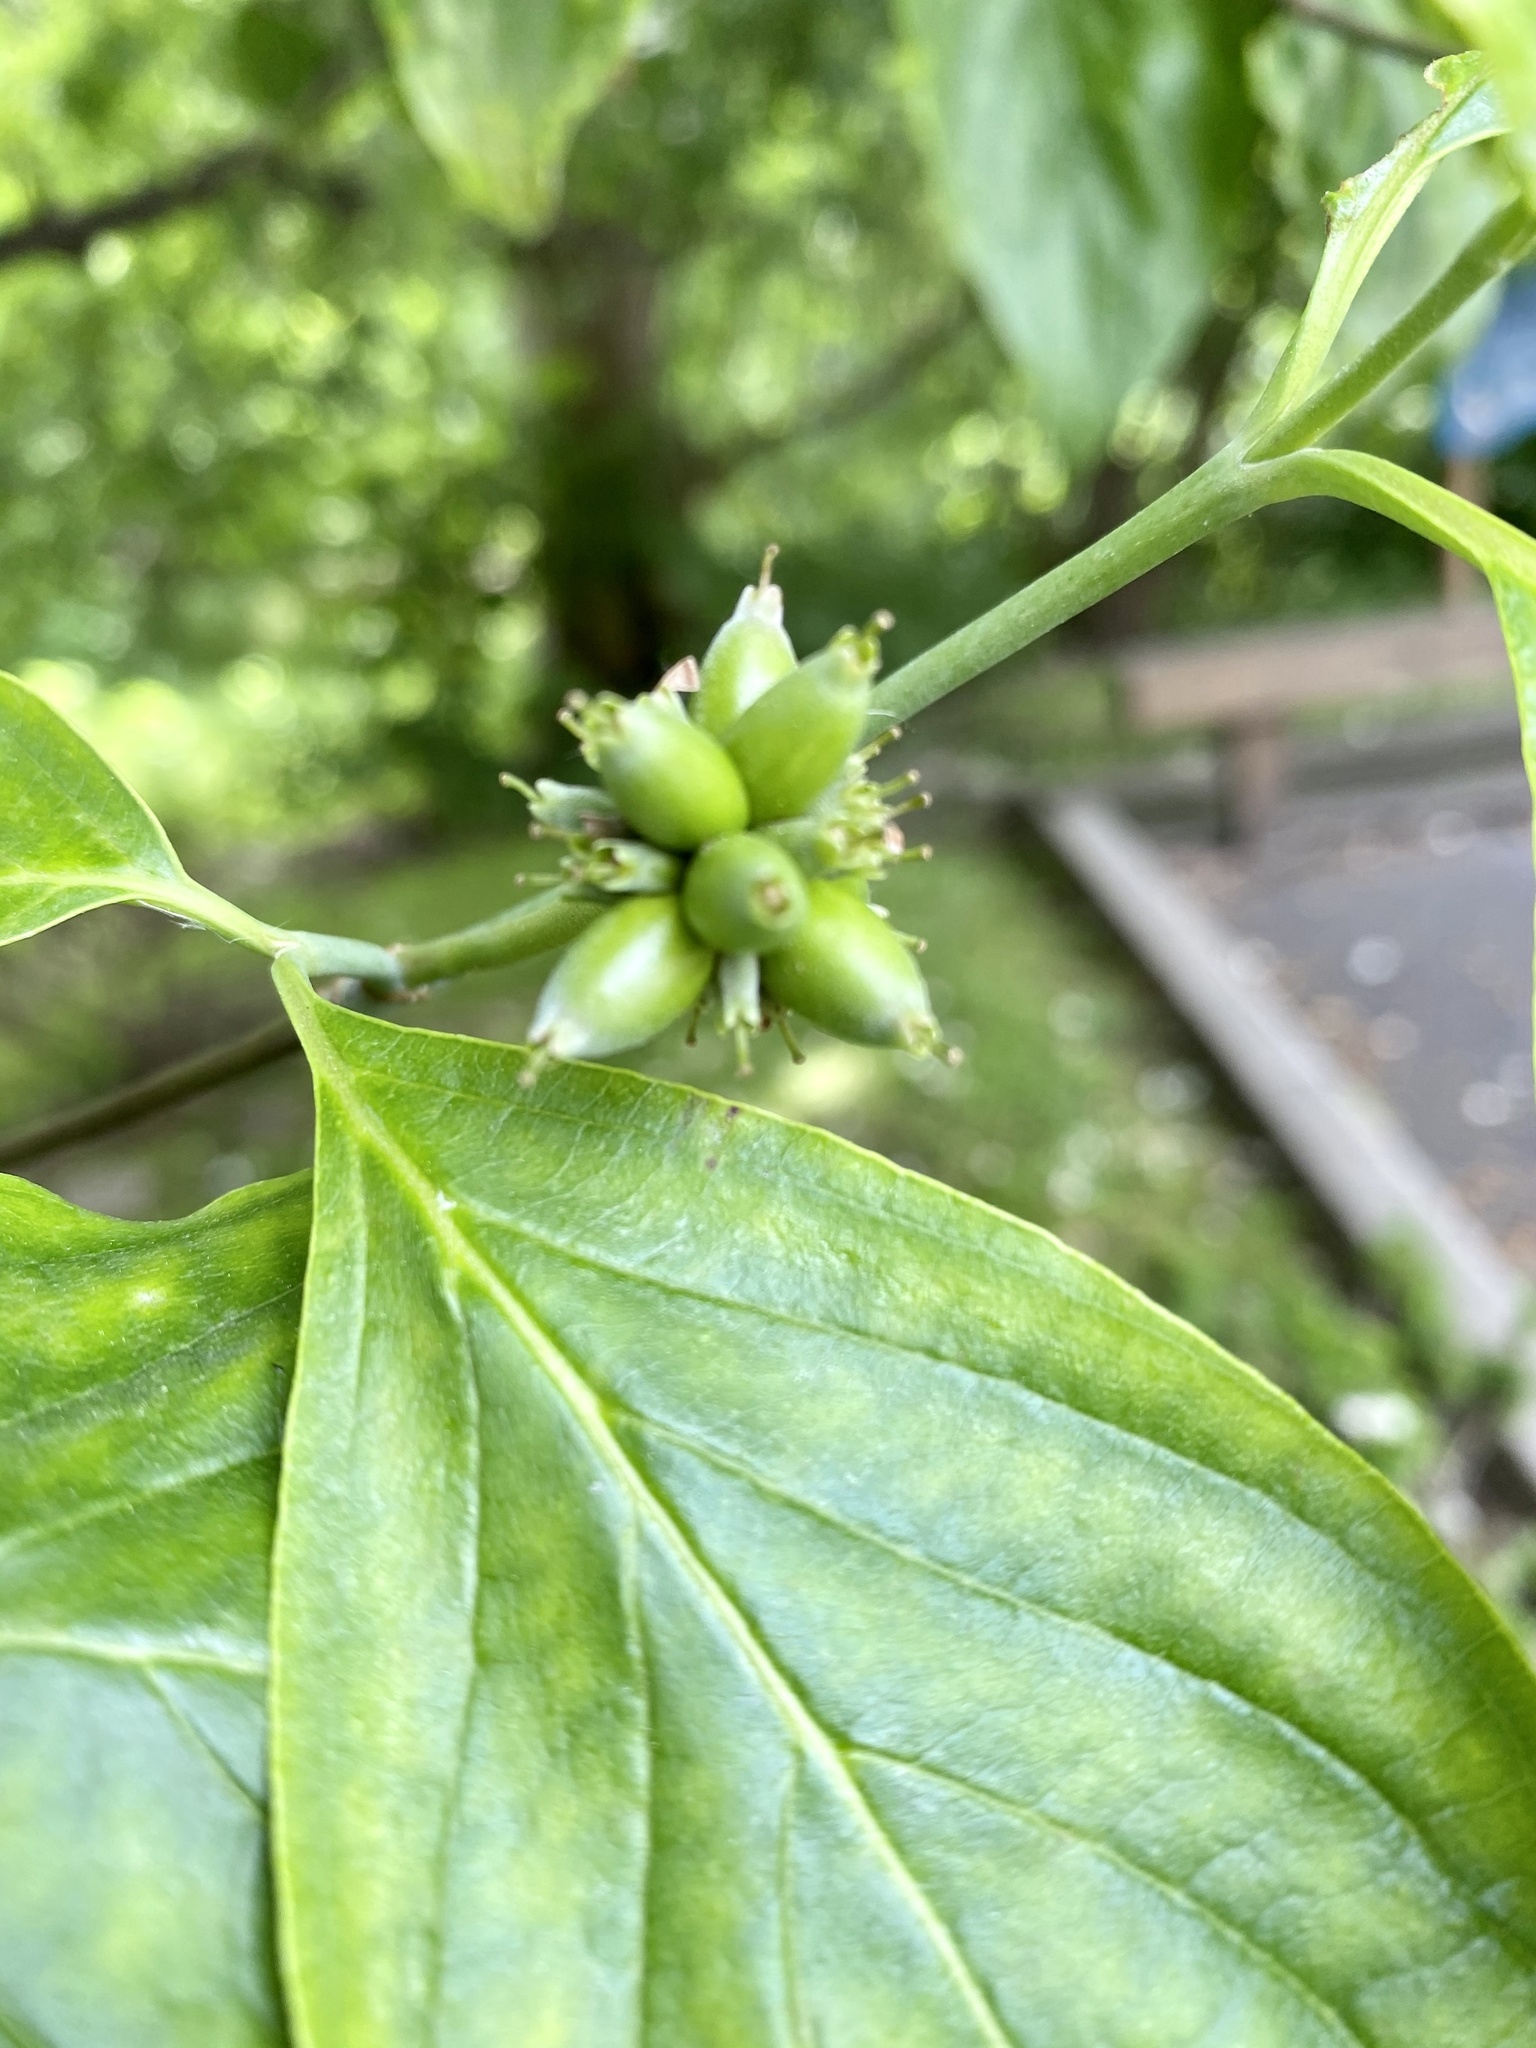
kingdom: Plantae
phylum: Tracheophyta
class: Magnoliopsida
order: Cornales
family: Cornaceae
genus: Cornus
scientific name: Cornus florida
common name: Flowering dogwood
